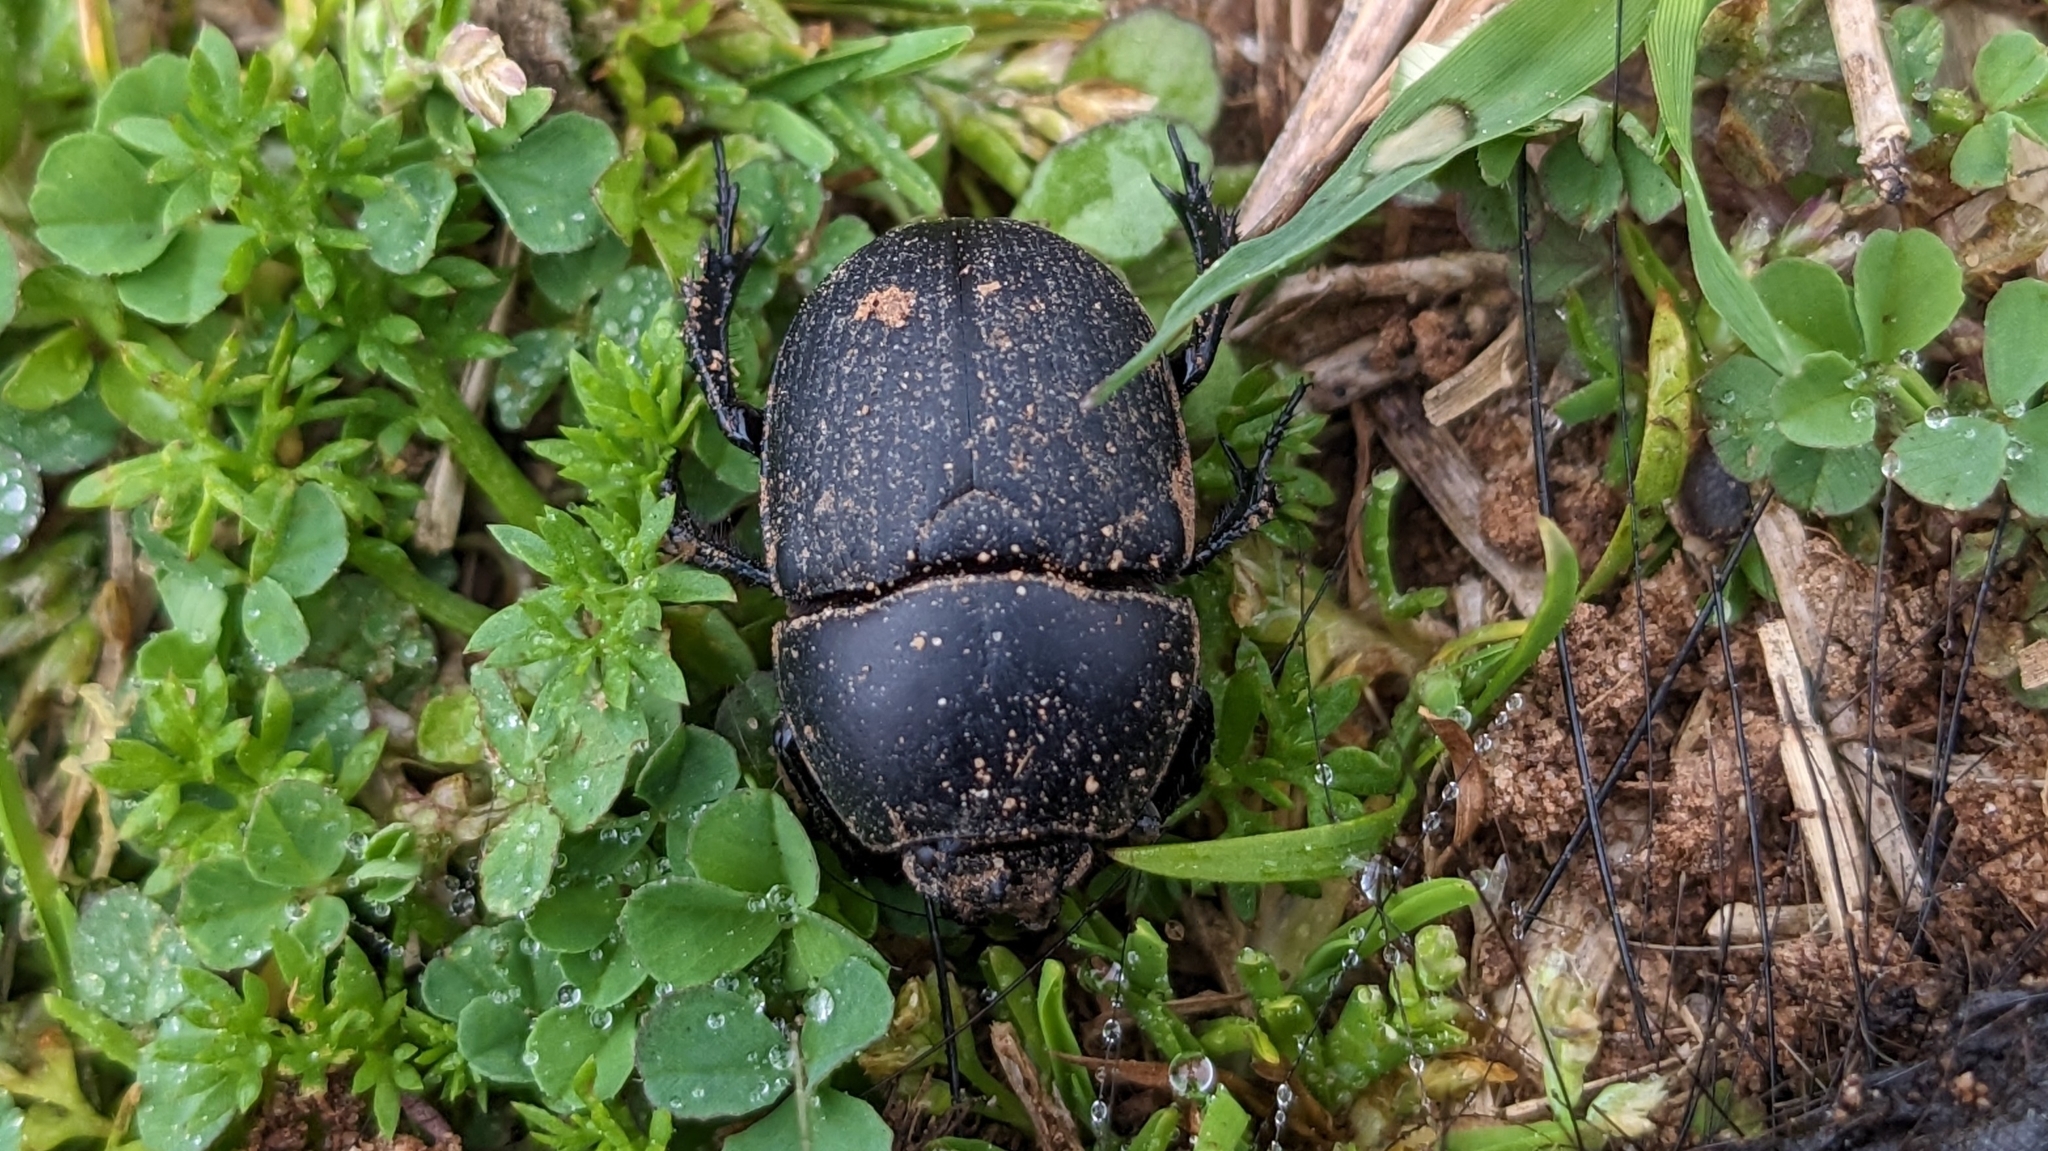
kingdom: Animalia
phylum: Arthropoda
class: Insecta
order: Coleoptera
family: Geotrupidae
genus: Geohowdenius
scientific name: Geohowdenius opacus
